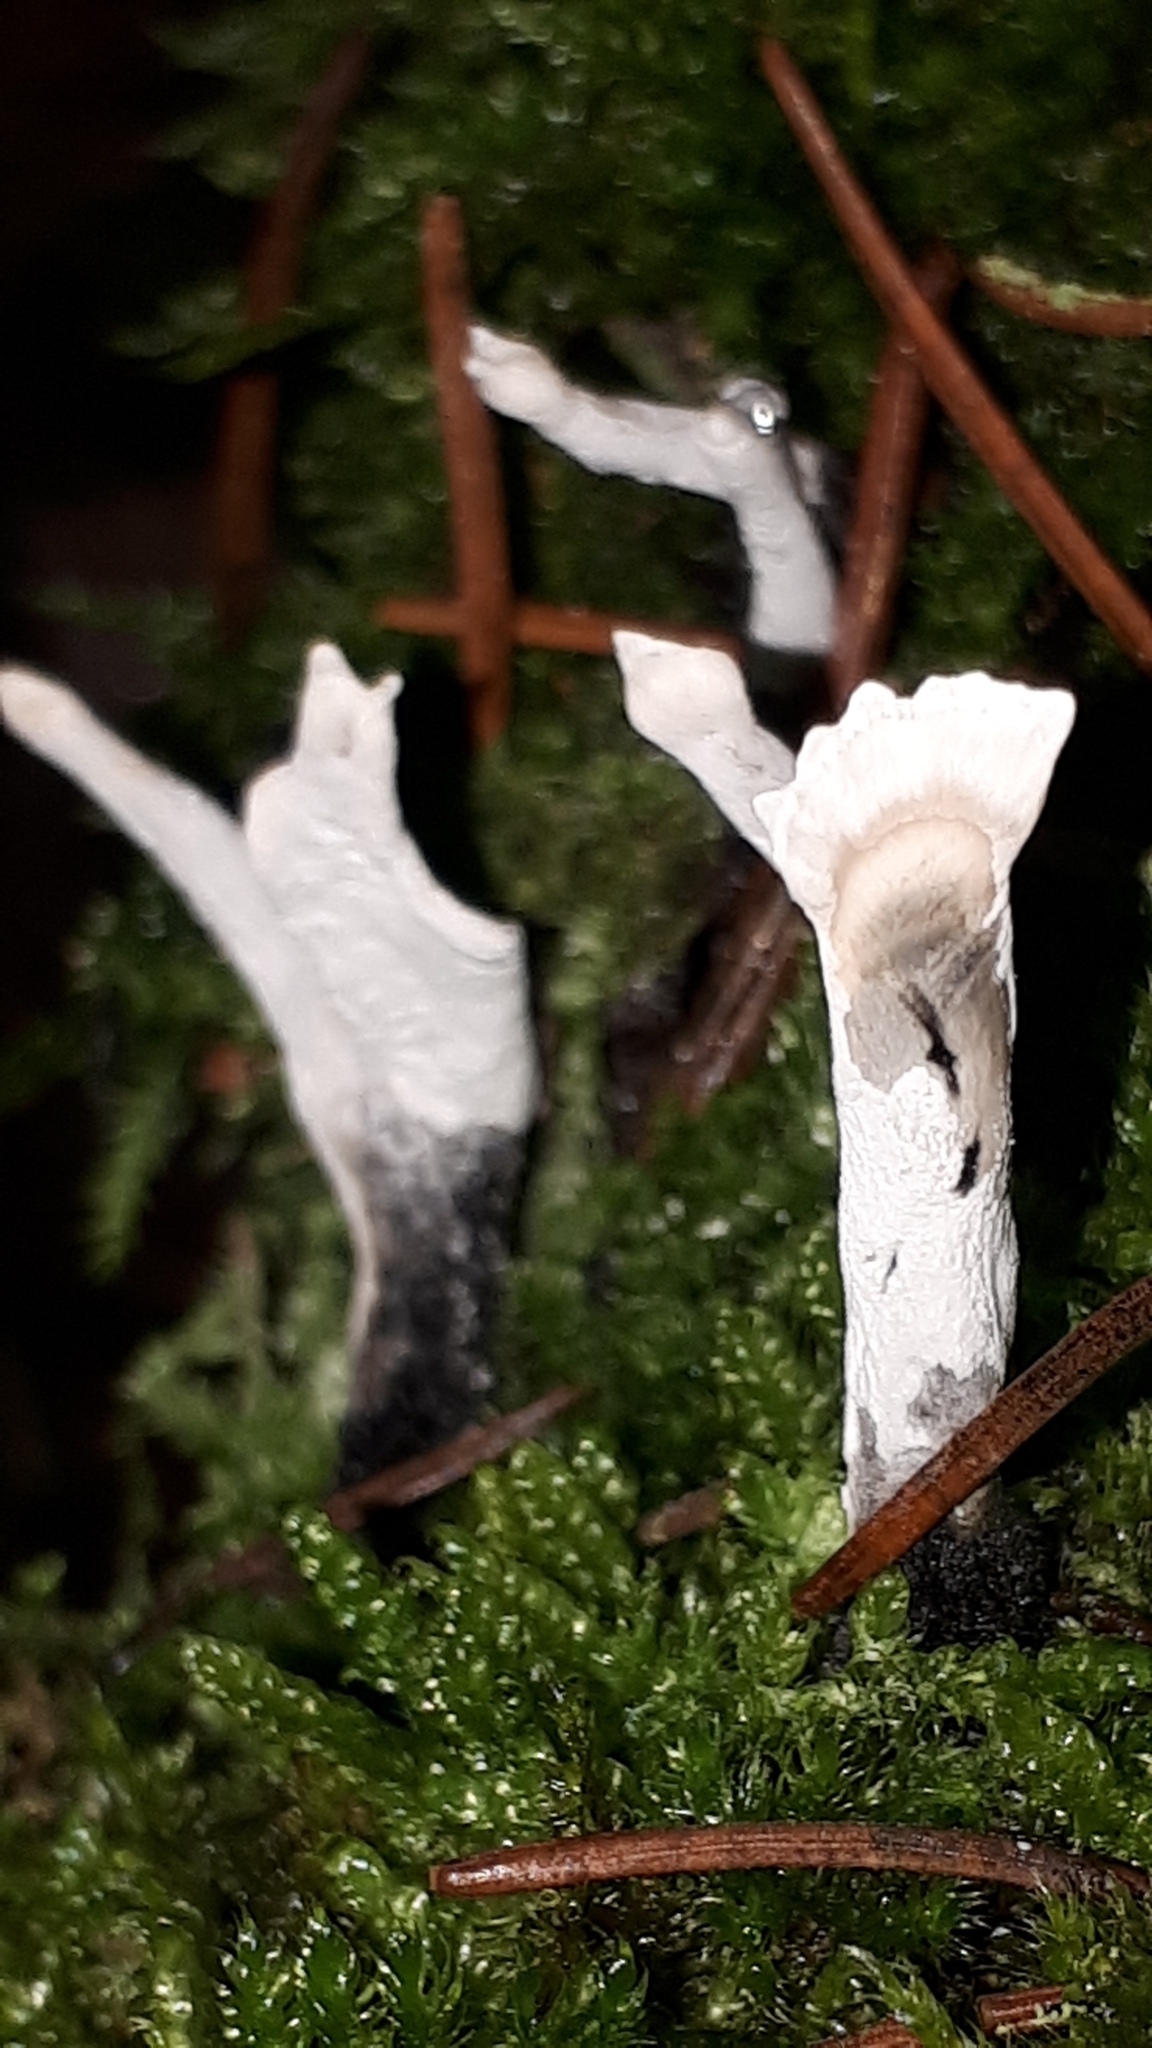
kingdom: Fungi
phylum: Ascomycota
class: Sordariomycetes
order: Xylariales
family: Xylariaceae
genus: Xylaria
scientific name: Xylaria hypoxylon
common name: Candle-snuff fungus
